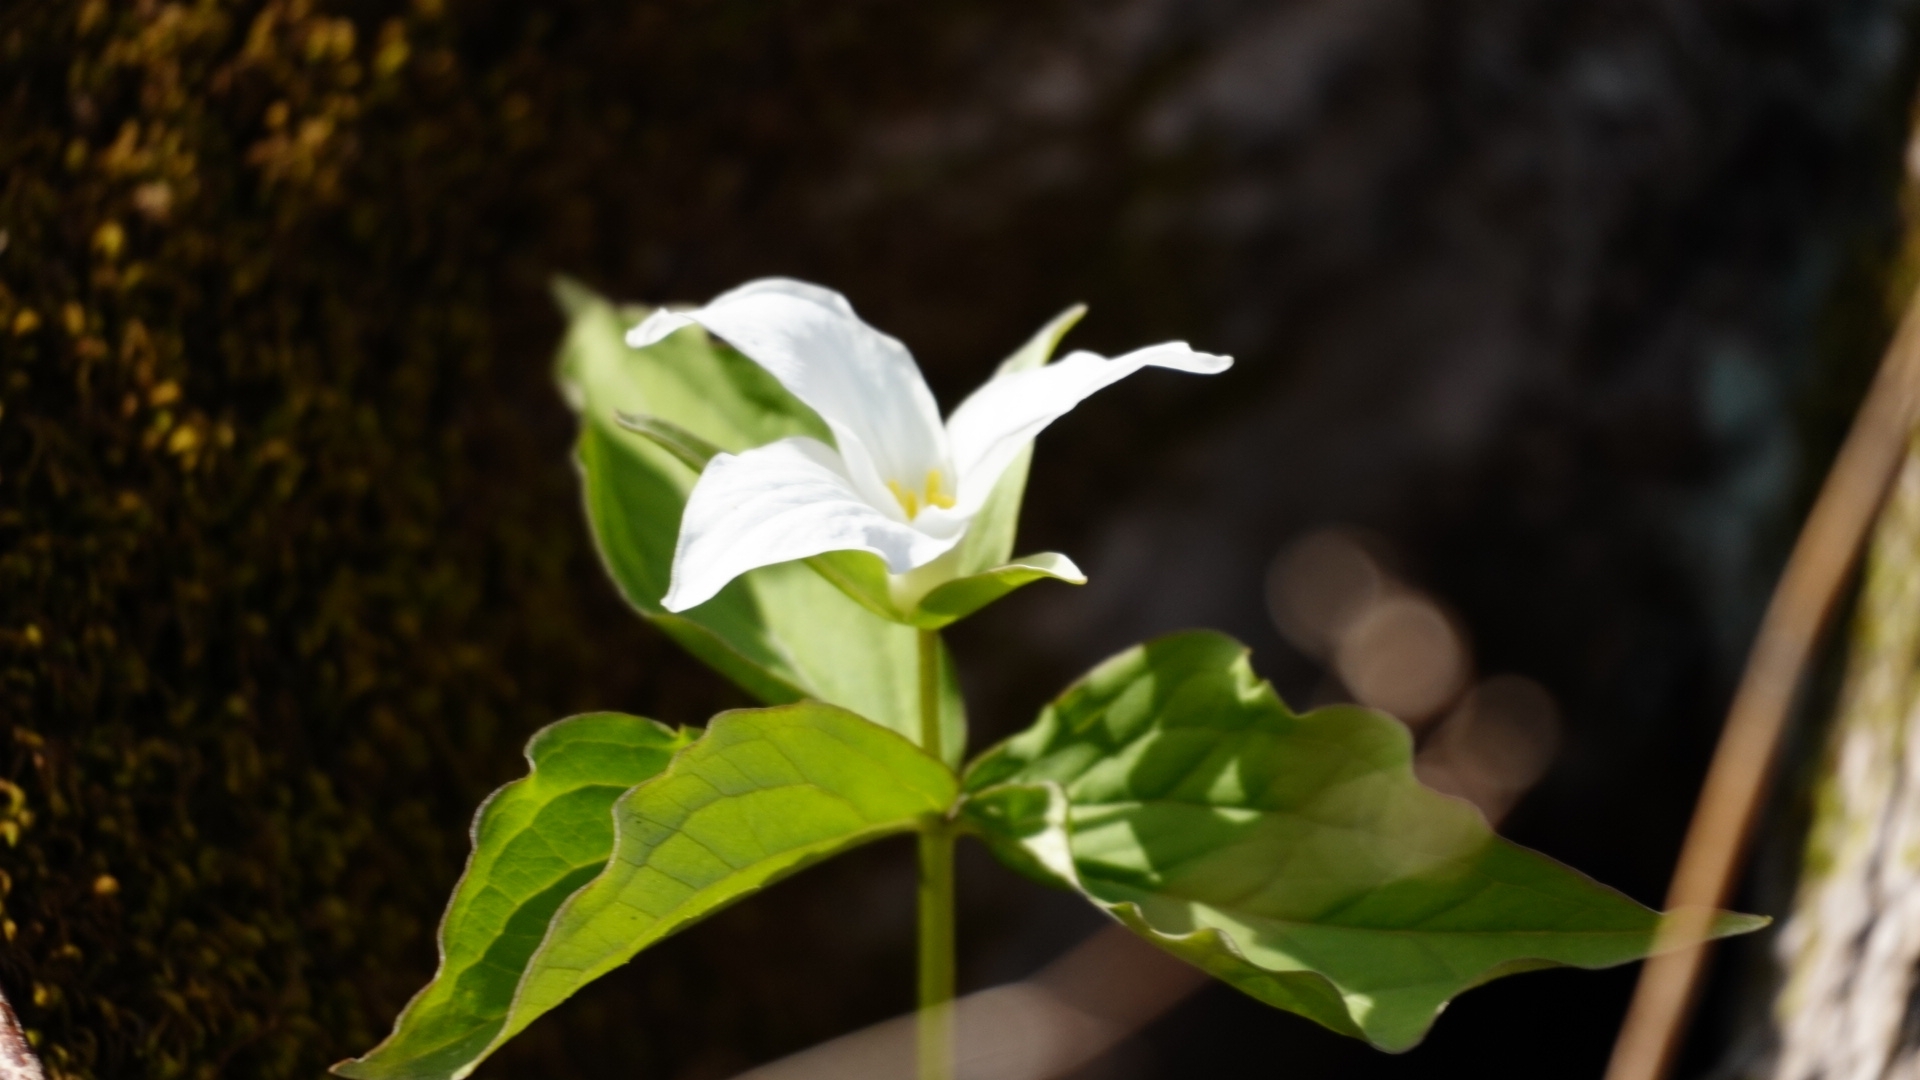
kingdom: Plantae
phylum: Tracheophyta
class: Liliopsida
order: Liliales
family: Melanthiaceae
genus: Trillium
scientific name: Trillium grandiflorum
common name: Great white trillium
